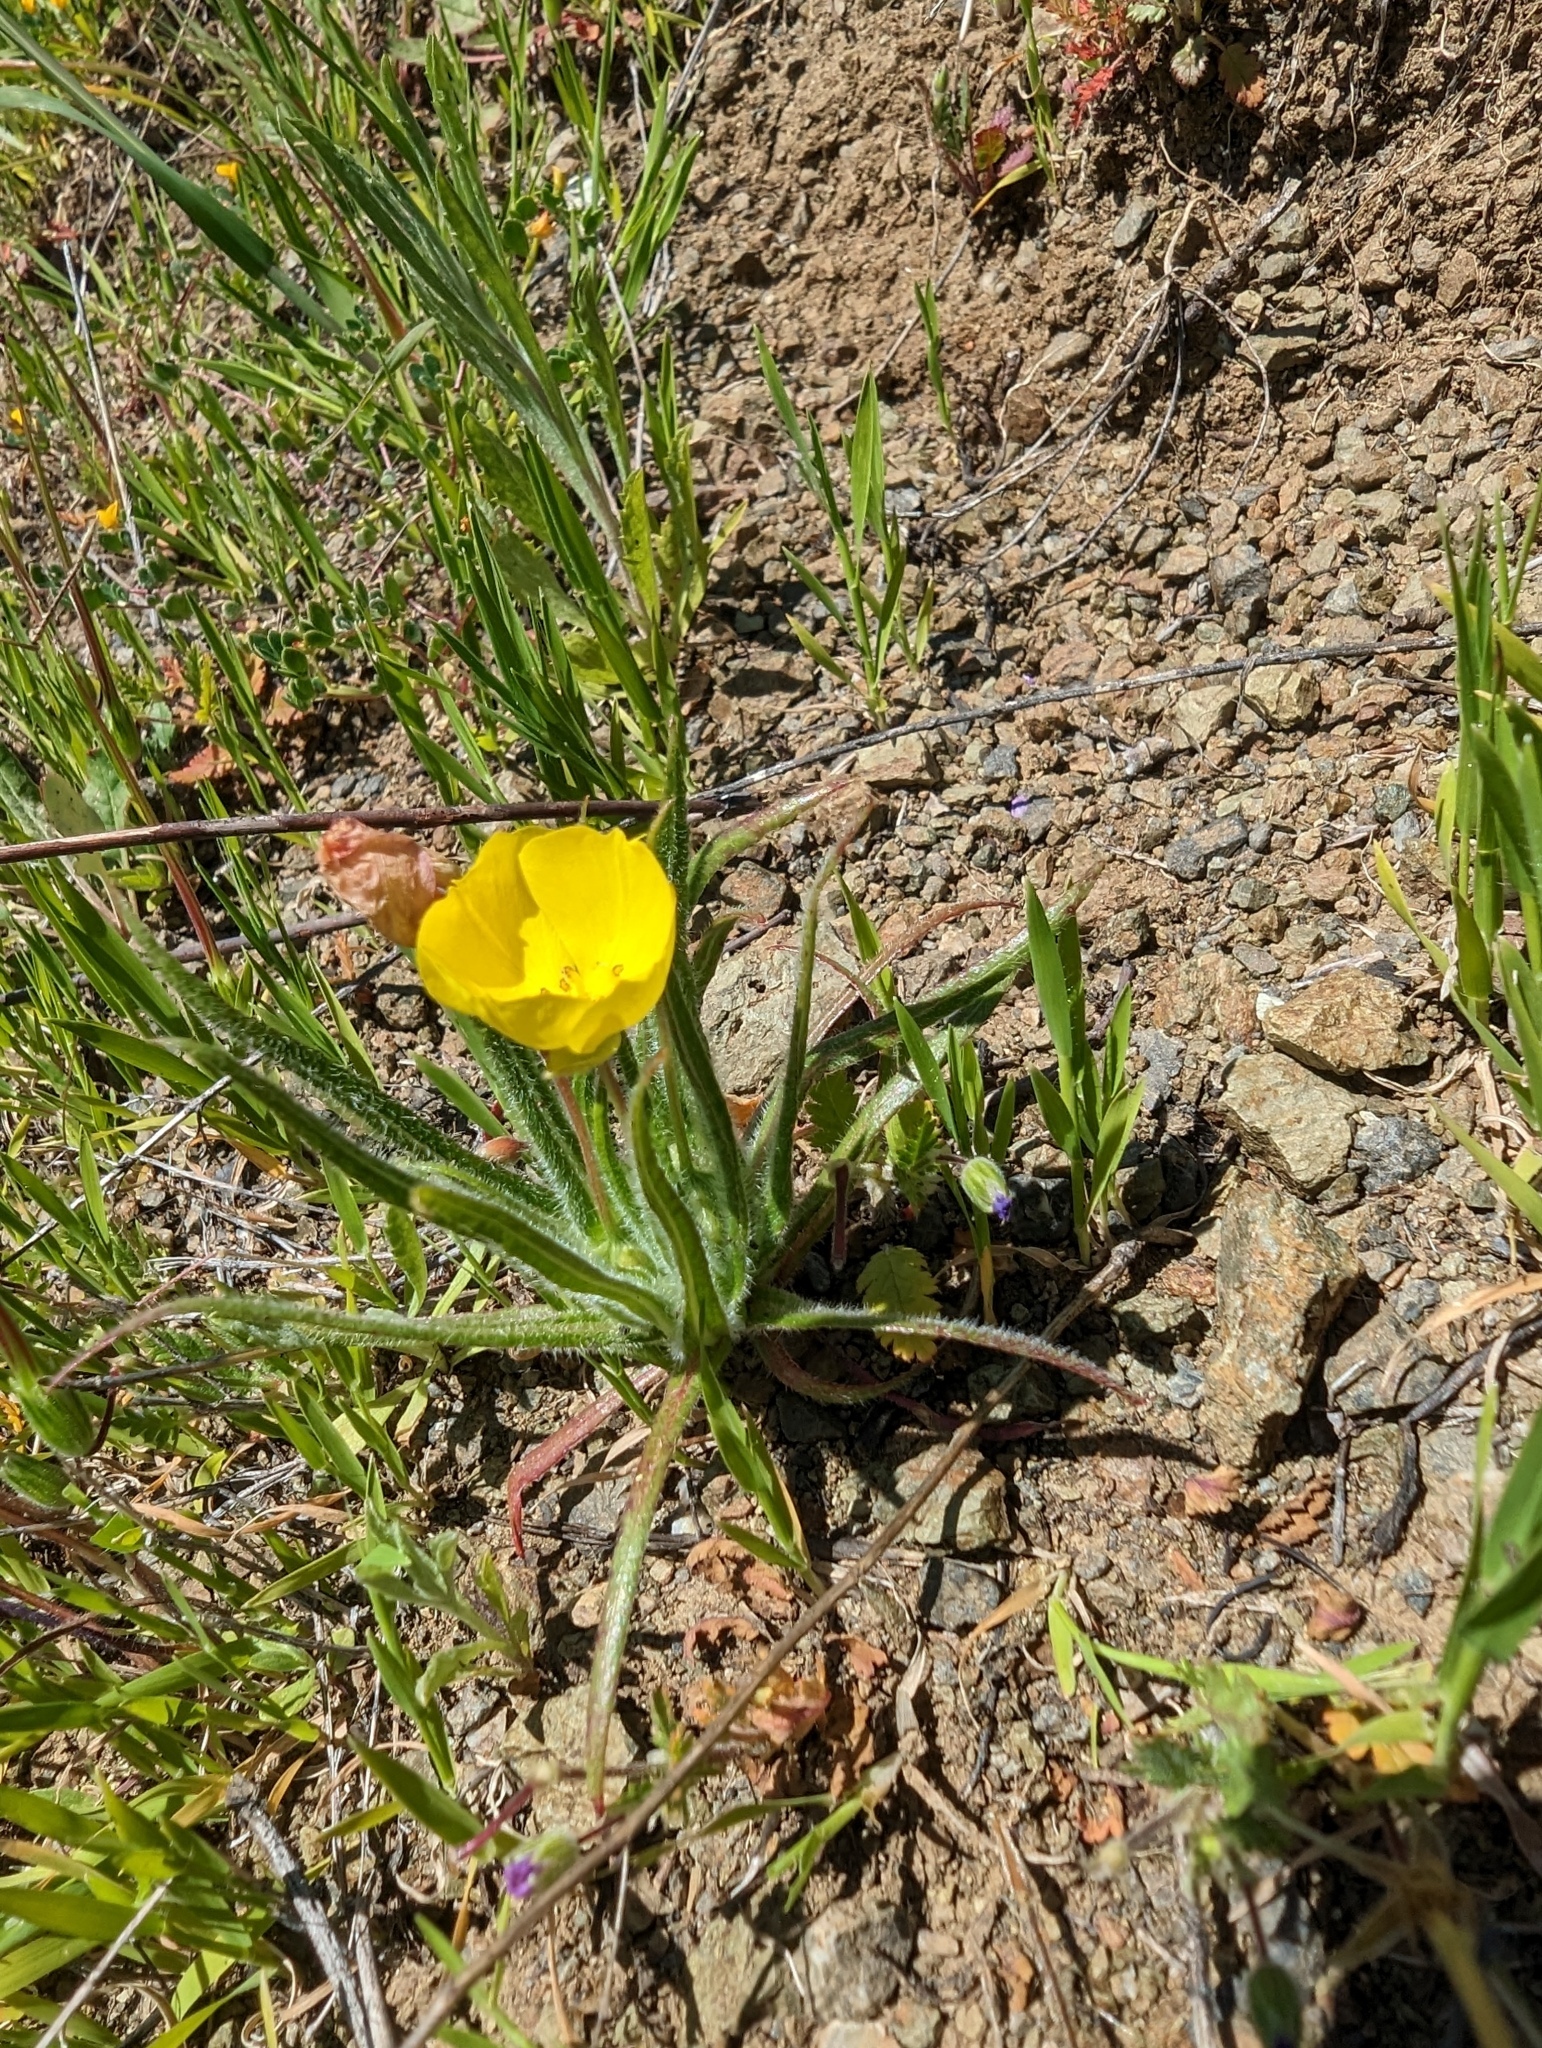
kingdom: Plantae
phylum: Tracheophyta
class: Magnoliopsida
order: Myrtales
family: Onagraceae
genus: Tetrapteron
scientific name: Tetrapteron graciliflorum
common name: Hill suncup
